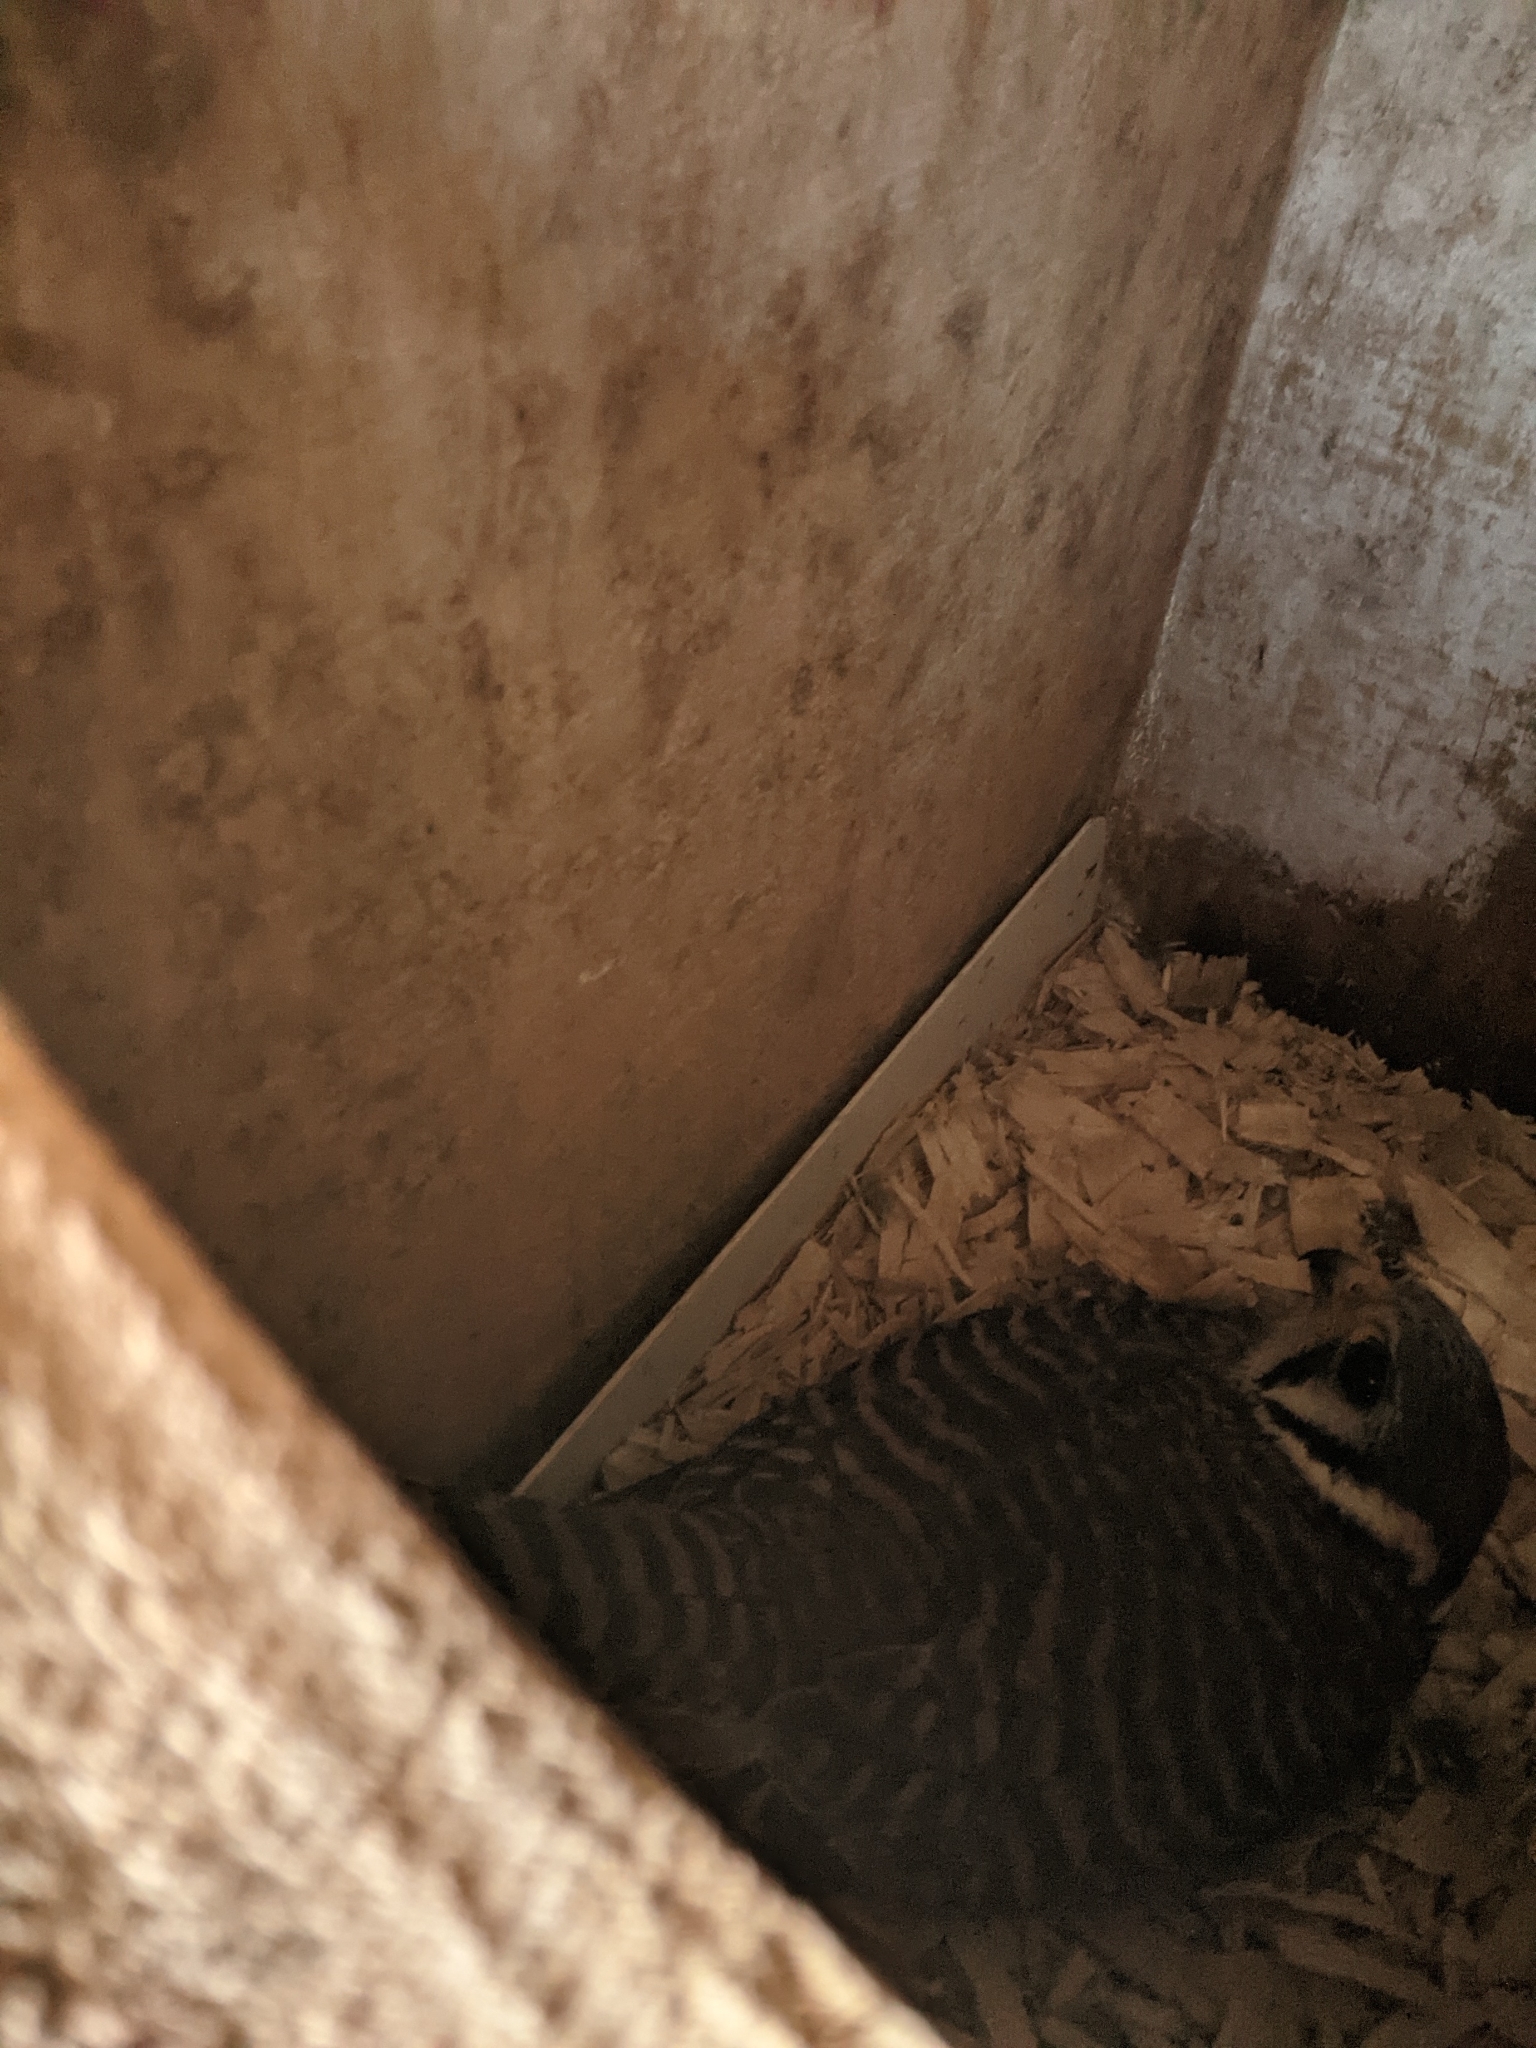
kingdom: Animalia
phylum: Chordata
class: Aves
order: Falconiformes
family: Falconidae
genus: Falco
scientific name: Falco sparverius
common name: American kestrel
